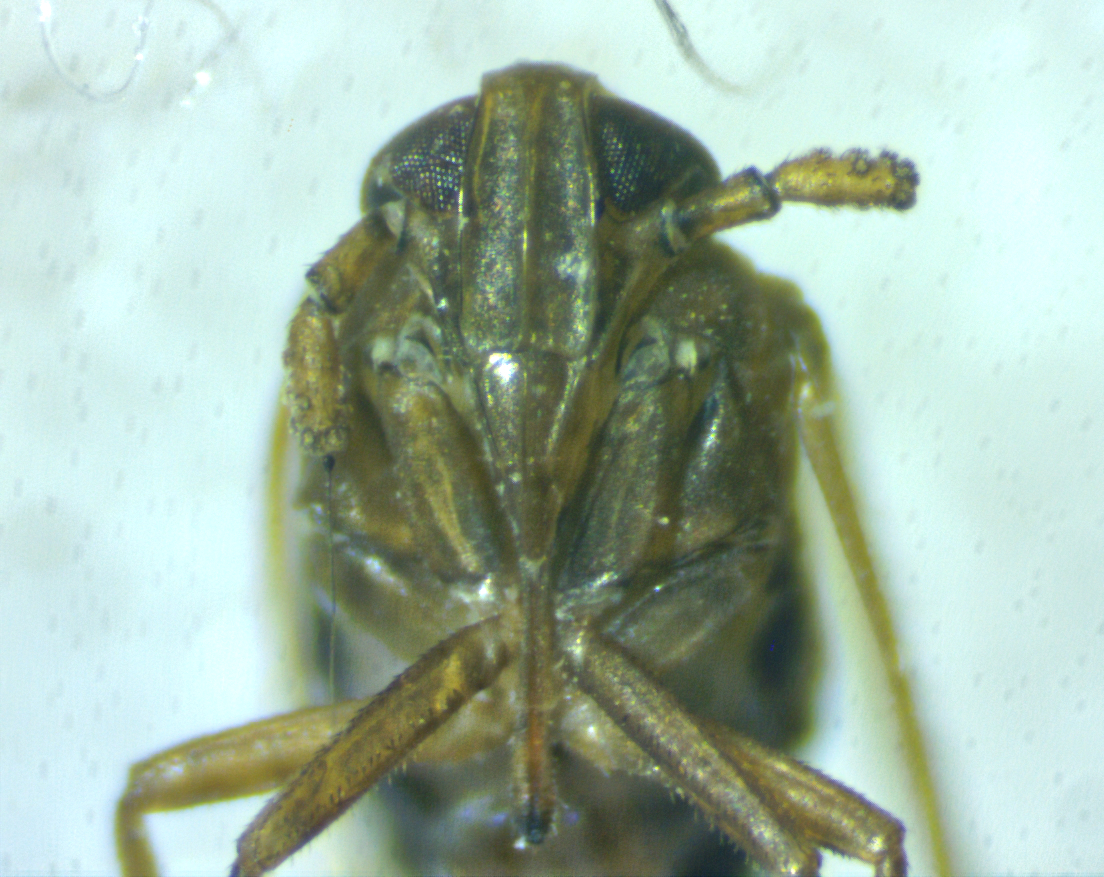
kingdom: Animalia
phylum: Arthropoda
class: Insecta
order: Hemiptera
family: Delphacidae
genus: Pareuidella
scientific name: Pareuidella weedi
